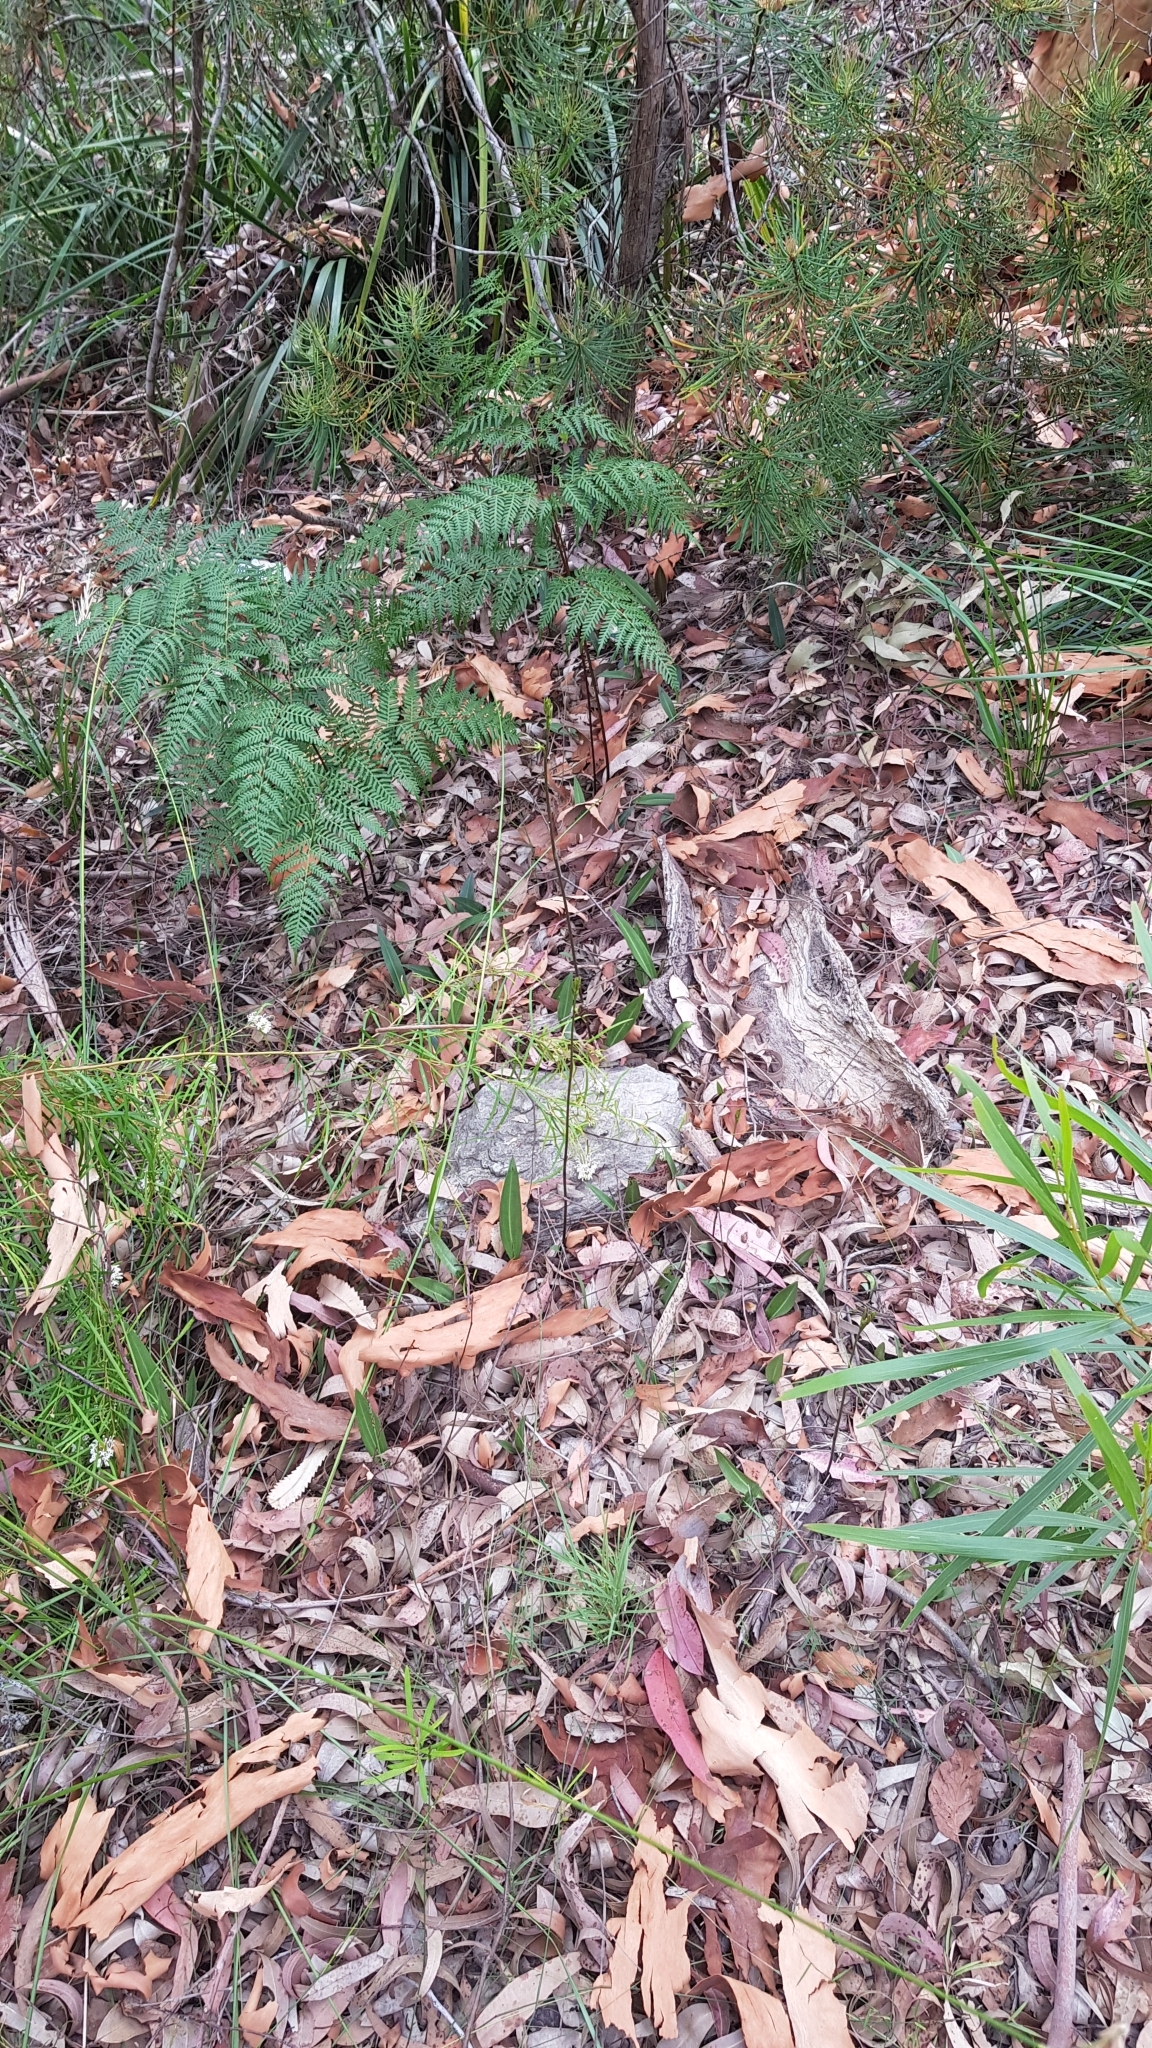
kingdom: Plantae
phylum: Tracheophyta
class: Liliopsida
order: Asparagales
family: Orchidaceae
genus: Cryptostylis
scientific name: Cryptostylis erecta
